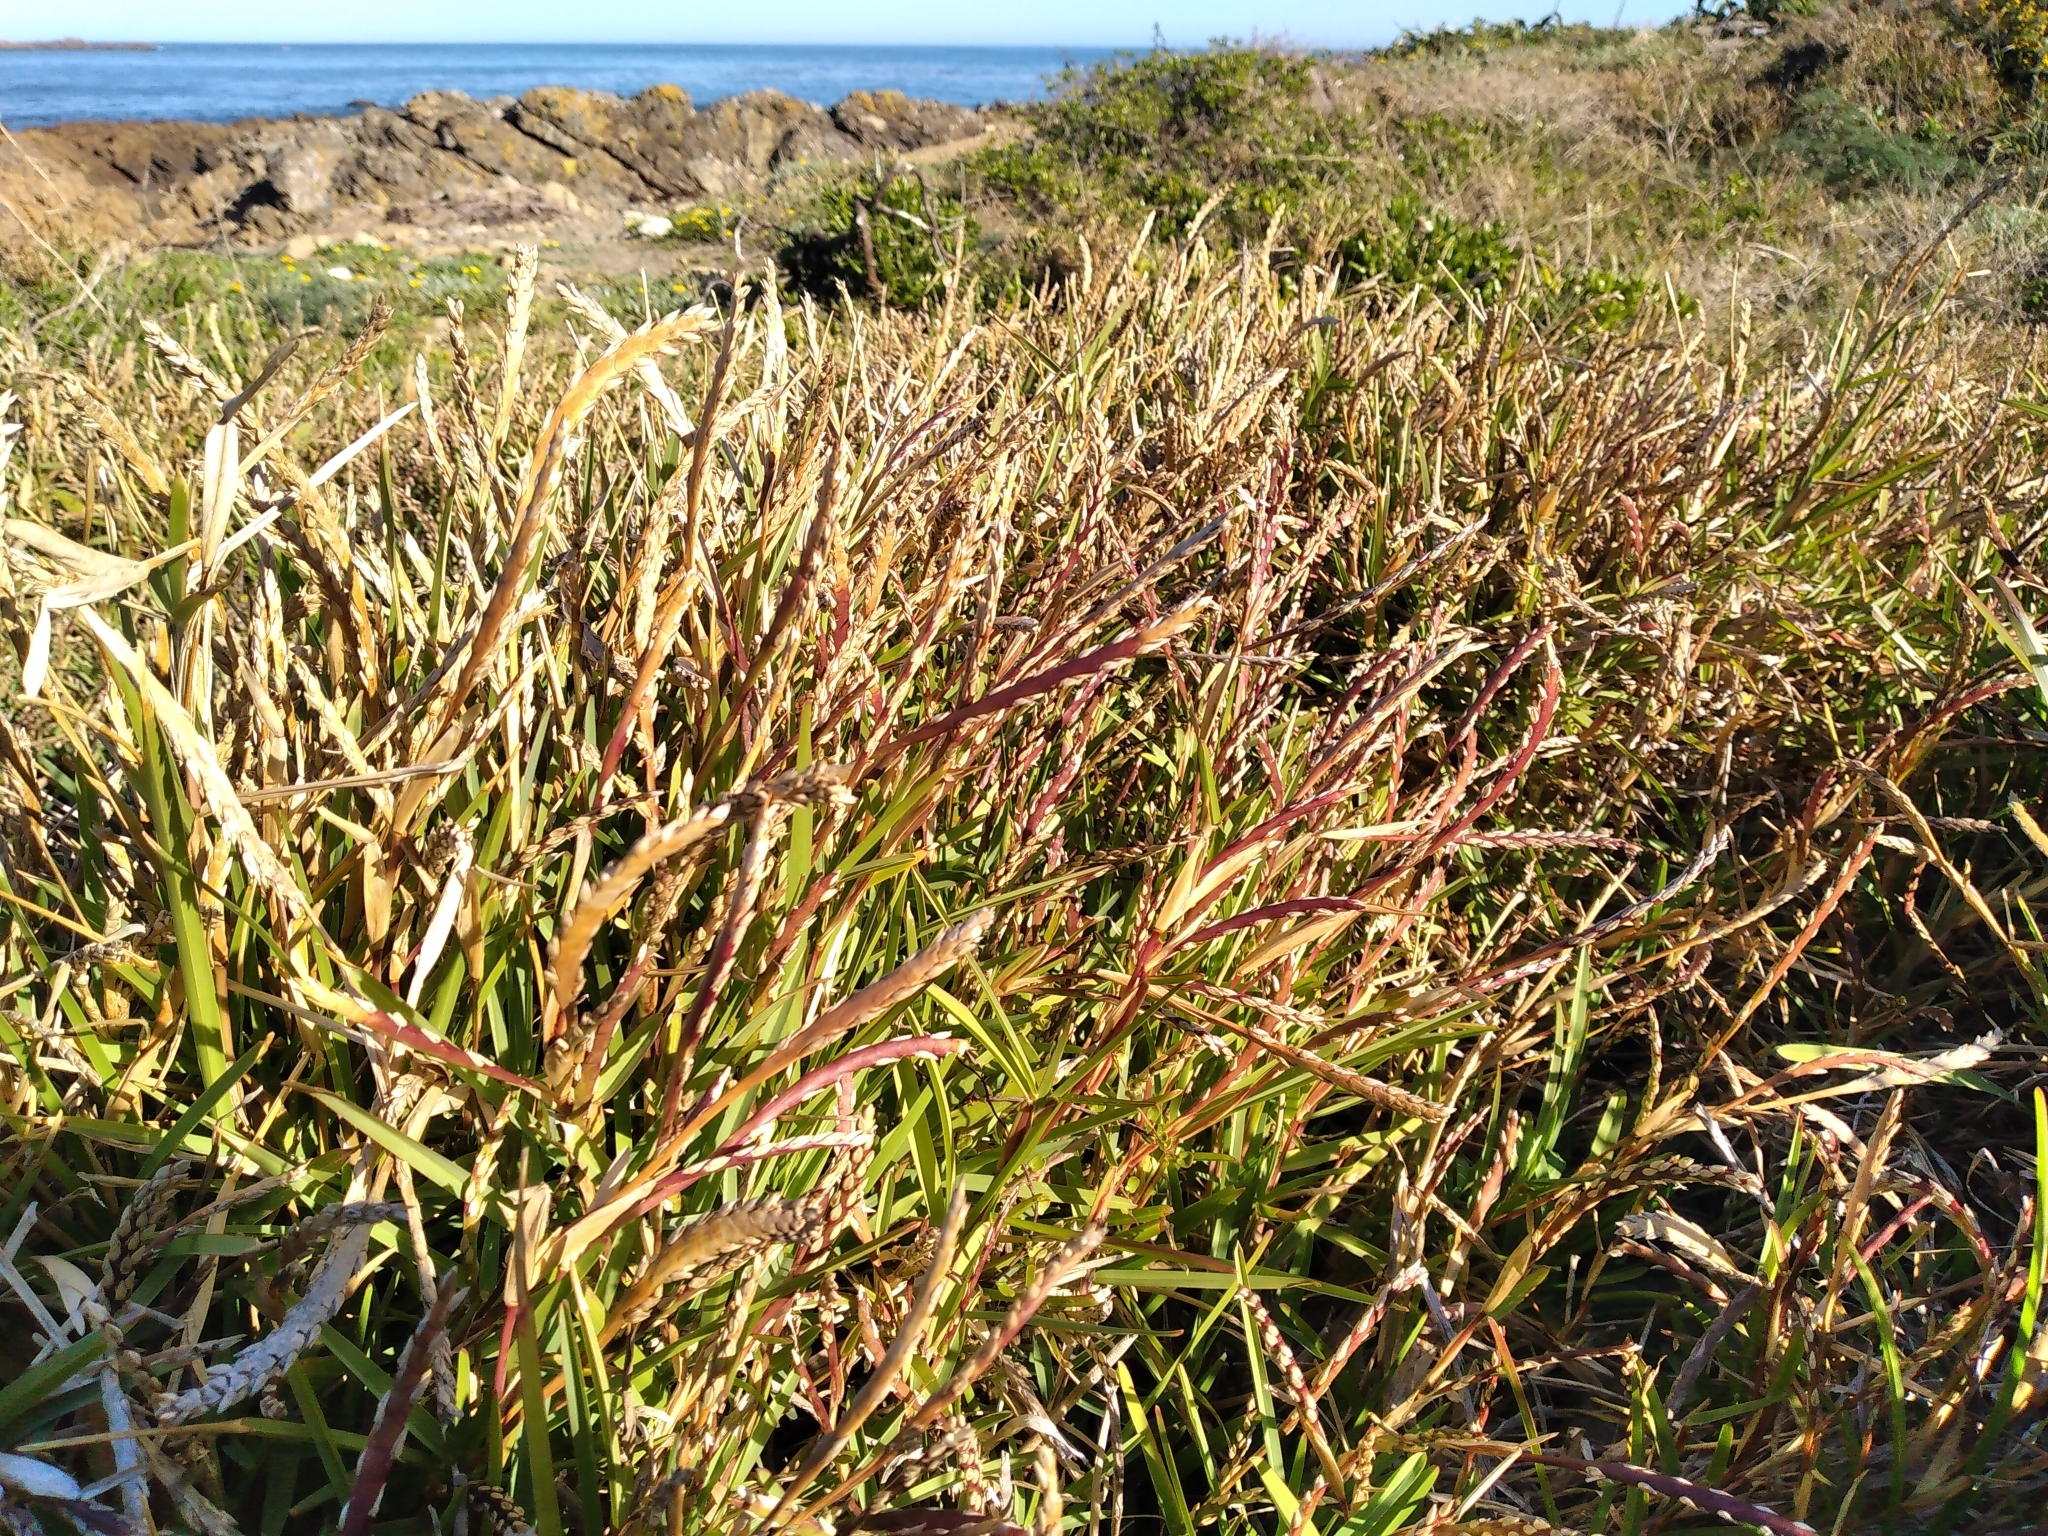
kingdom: Plantae
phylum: Tracheophyta
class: Liliopsida
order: Poales
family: Poaceae
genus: Stenotaphrum
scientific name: Stenotaphrum secundatum
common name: St. augustine grass
